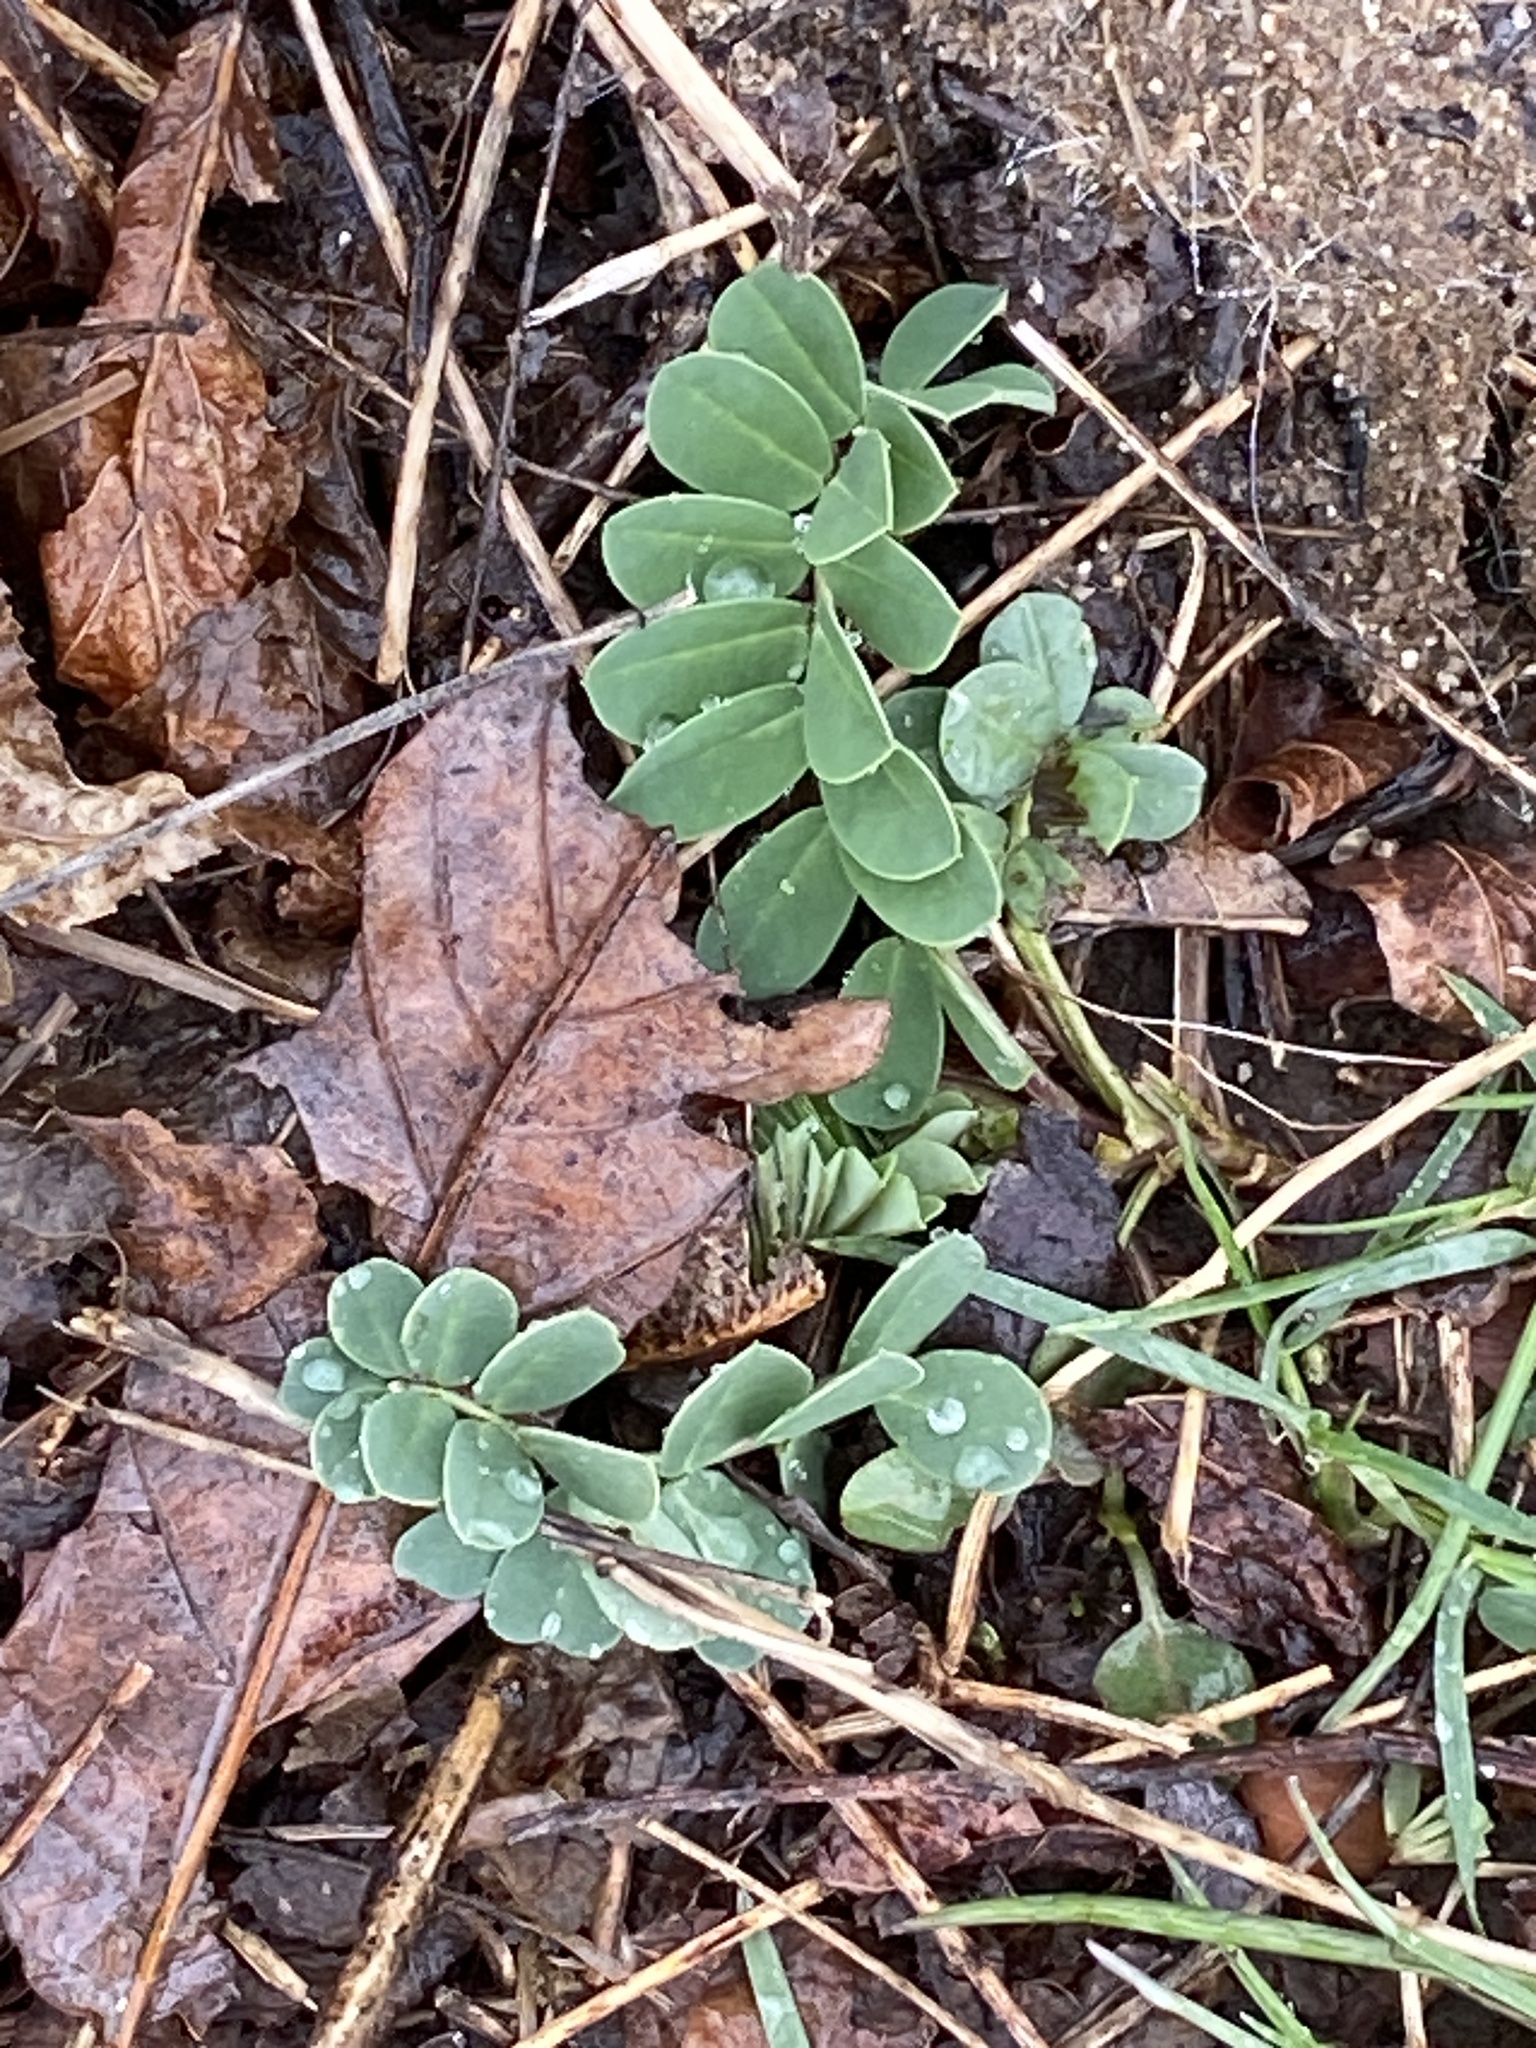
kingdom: Plantae
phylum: Tracheophyta
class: Magnoliopsida
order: Fabales
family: Fabaceae
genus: Coronilla
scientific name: Coronilla varia
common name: Crownvetch
